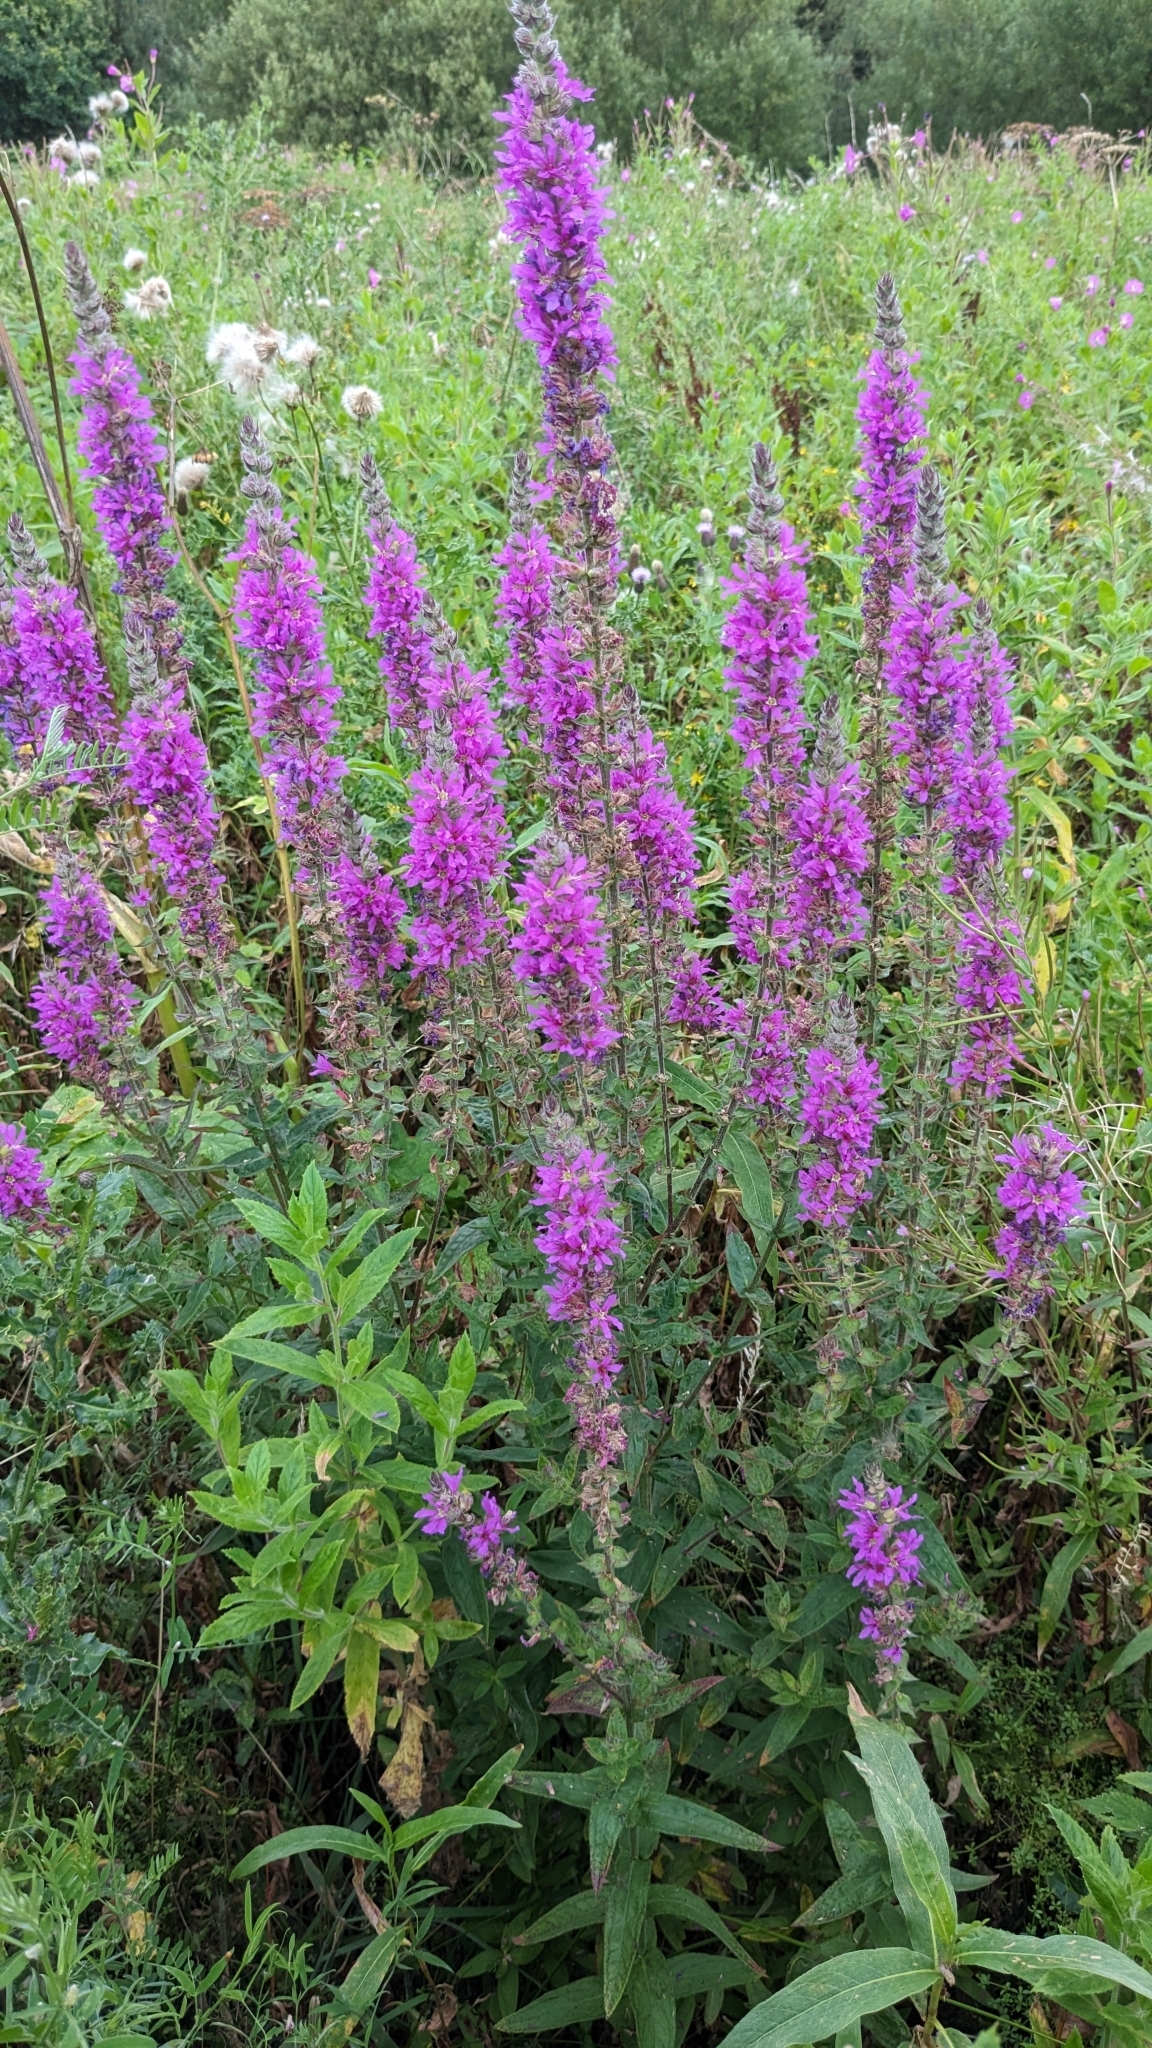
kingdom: Plantae
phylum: Tracheophyta
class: Magnoliopsida
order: Myrtales
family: Lythraceae
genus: Lythrum
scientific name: Lythrum salicaria
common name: Purple loosestrife
